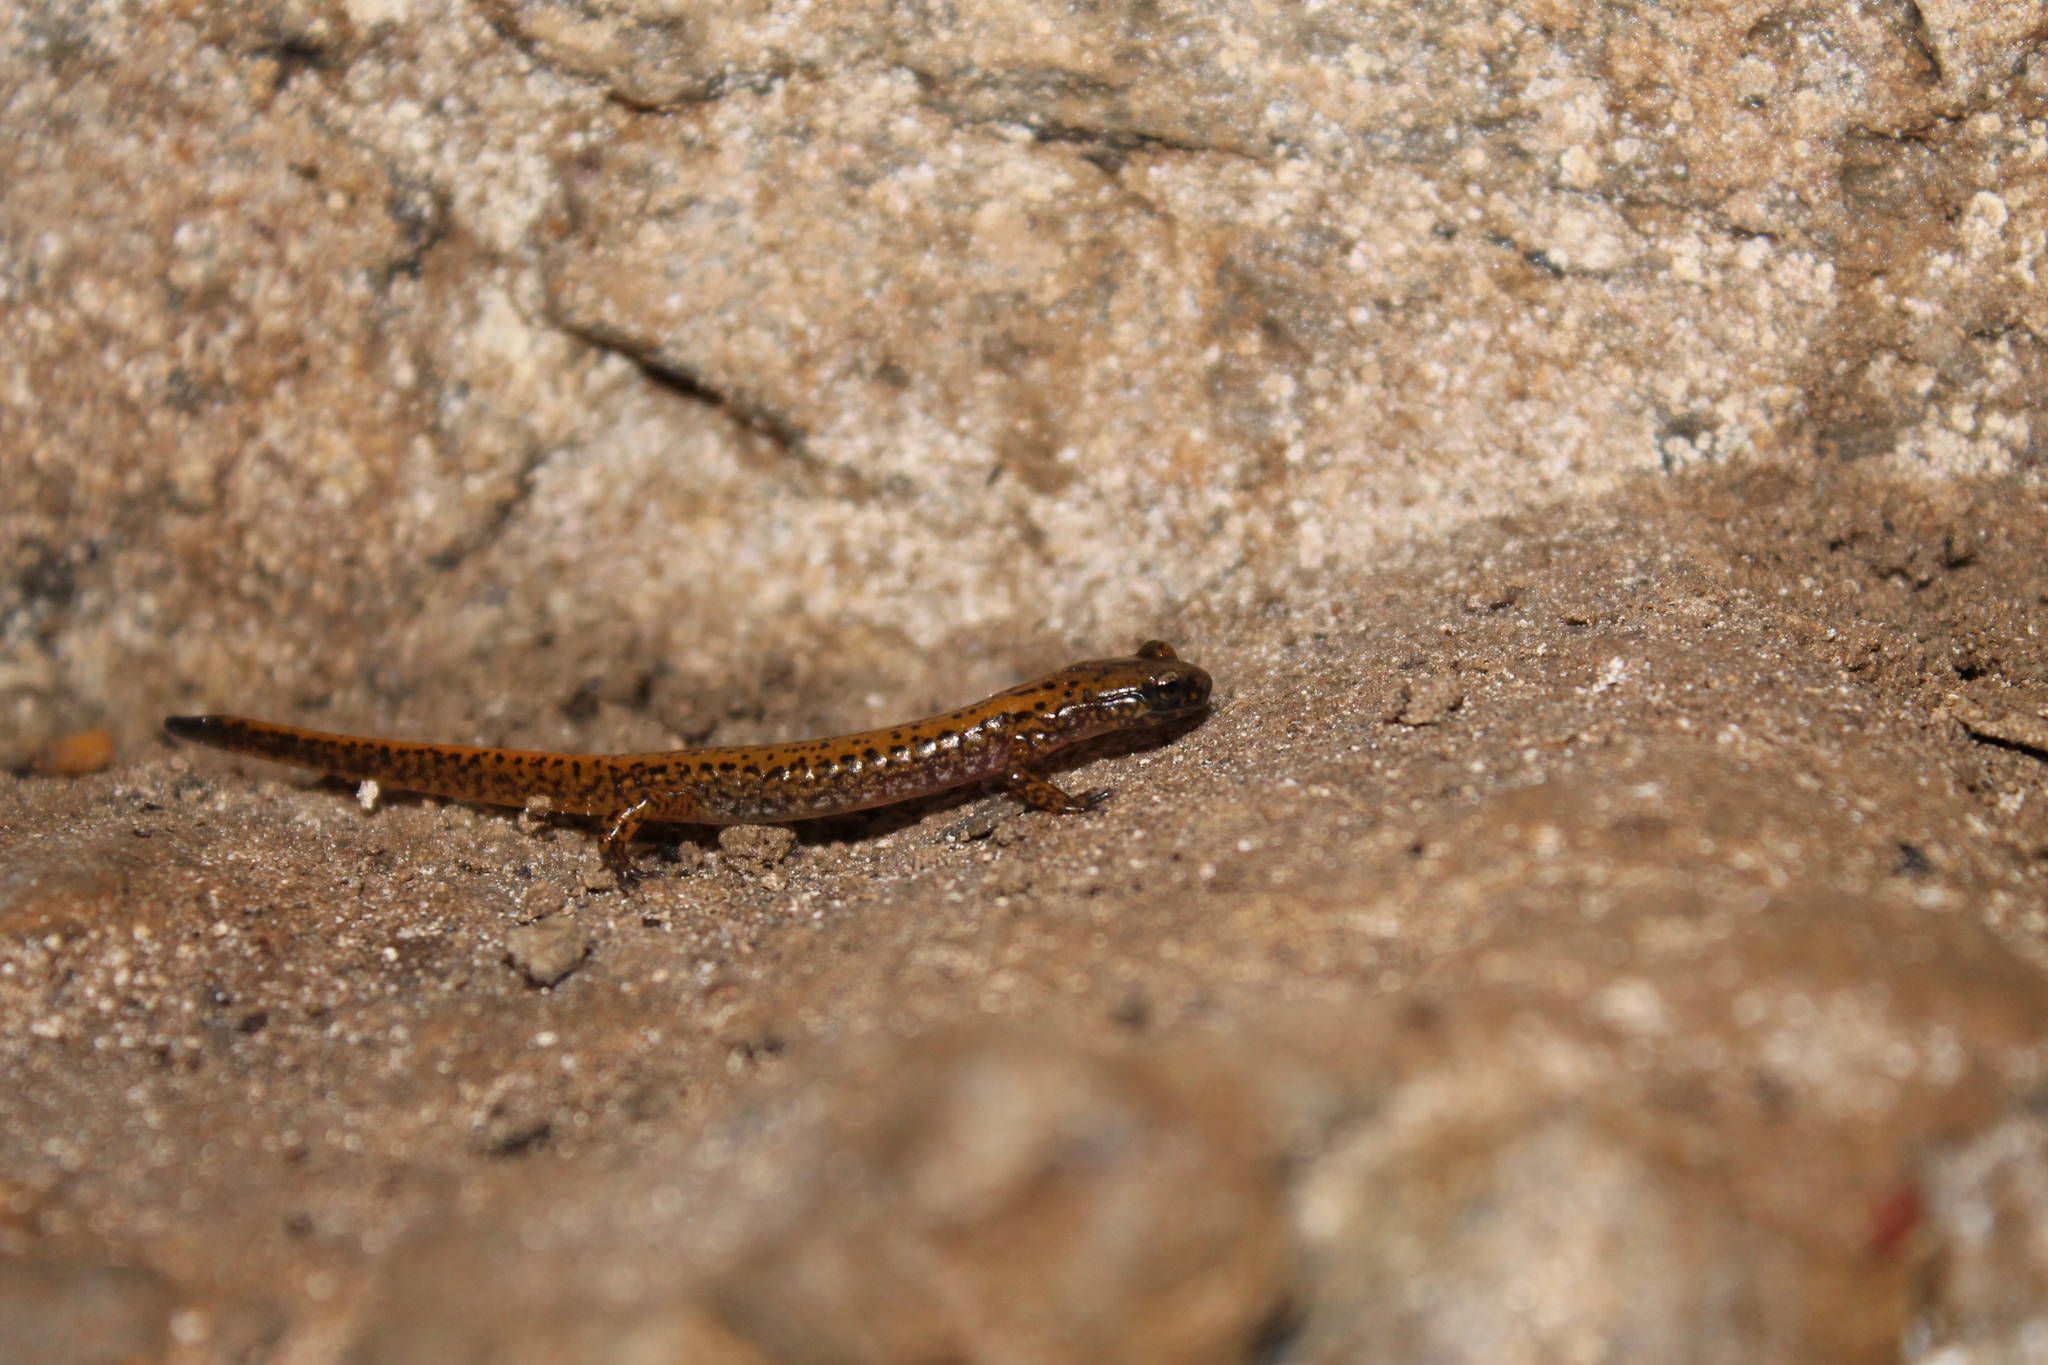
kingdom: Animalia
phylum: Chordata
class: Amphibia
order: Caudata
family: Plethodontidae
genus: Eurycea
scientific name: Eurycea lucifuga
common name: Cave salamander
